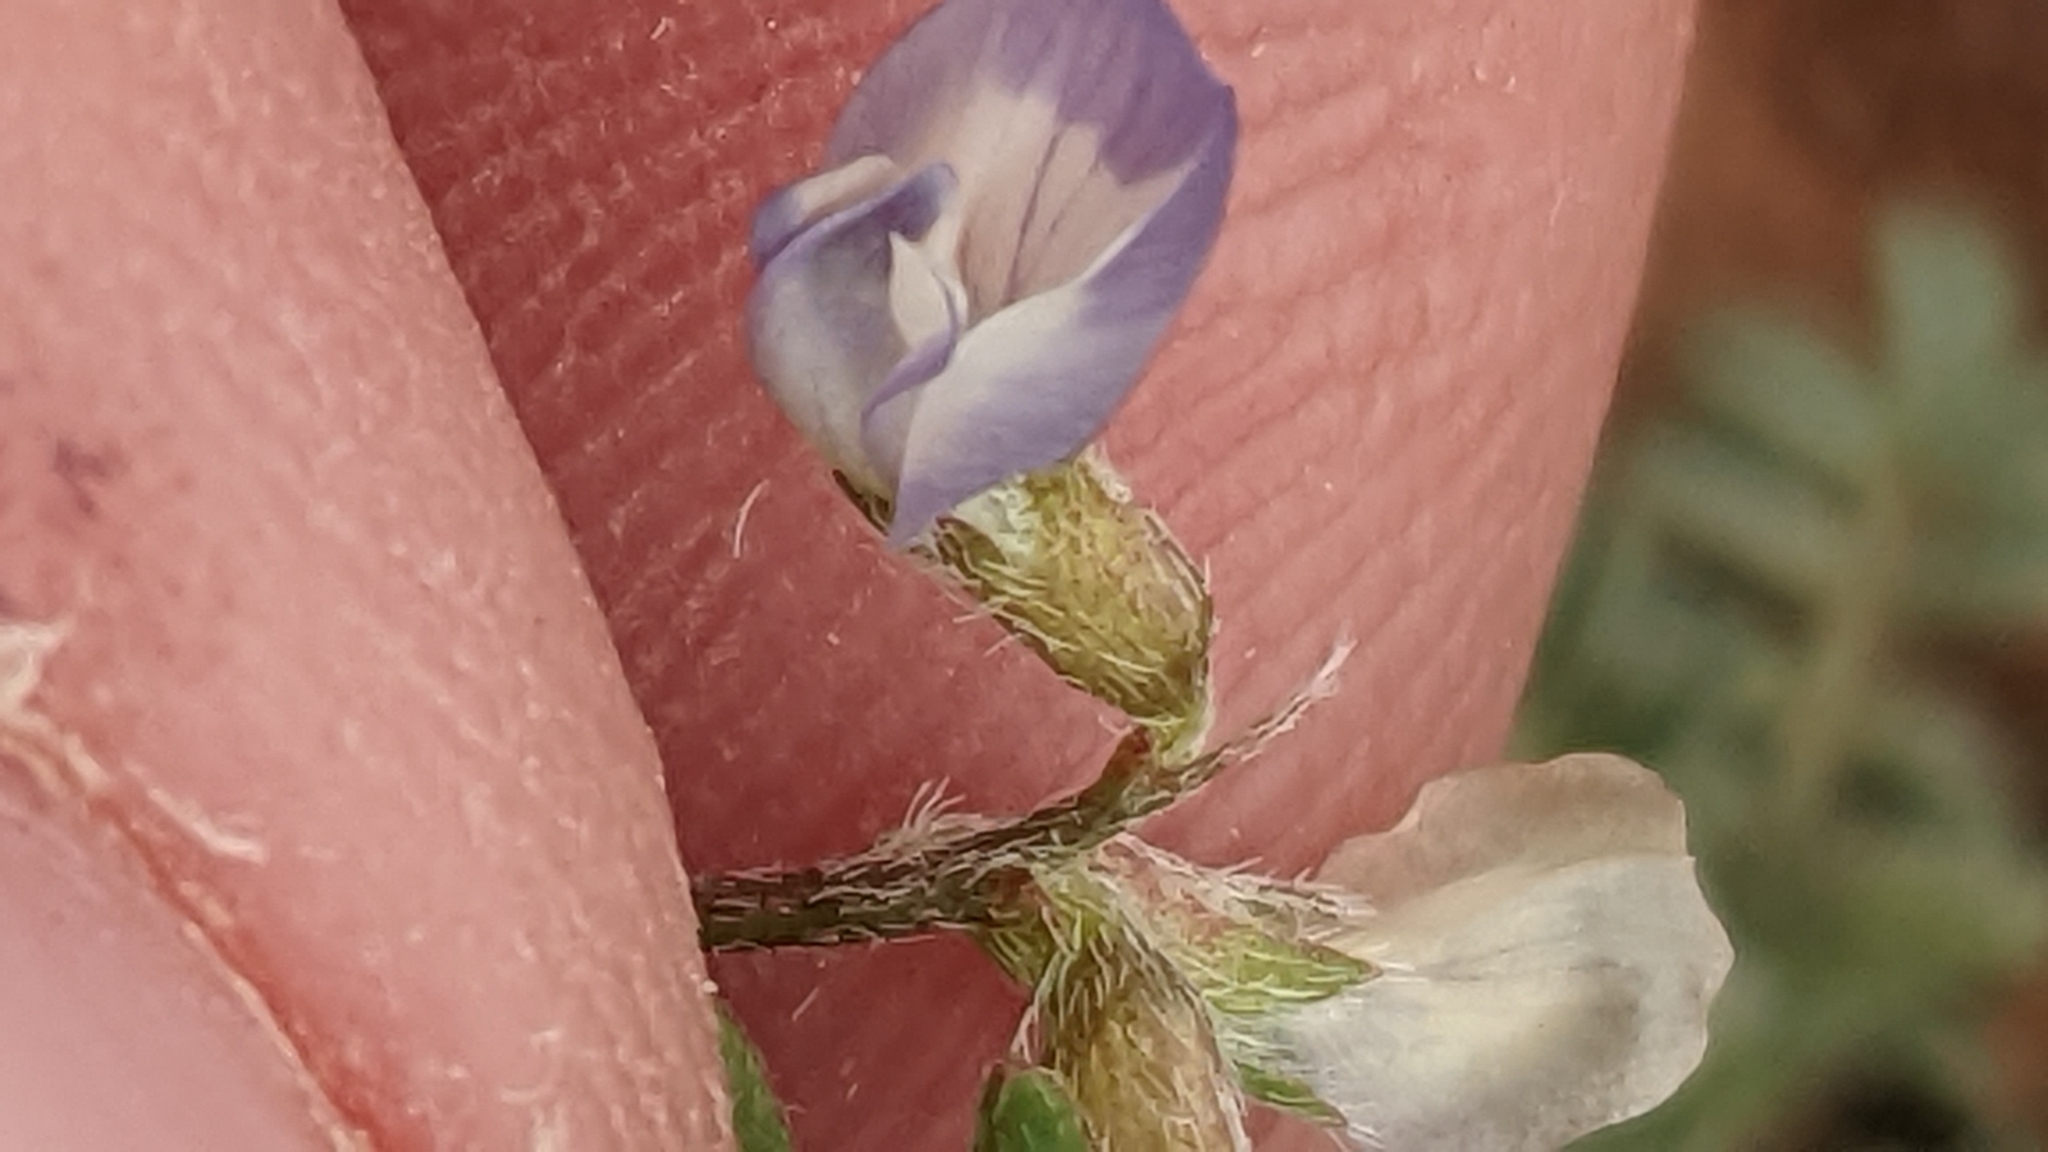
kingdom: Plantae
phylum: Tracheophyta
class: Magnoliopsida
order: Fabales
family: Fabaceae
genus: Astragalus
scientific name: Astragalus nuttallianus
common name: Smallflowered milkvetch
